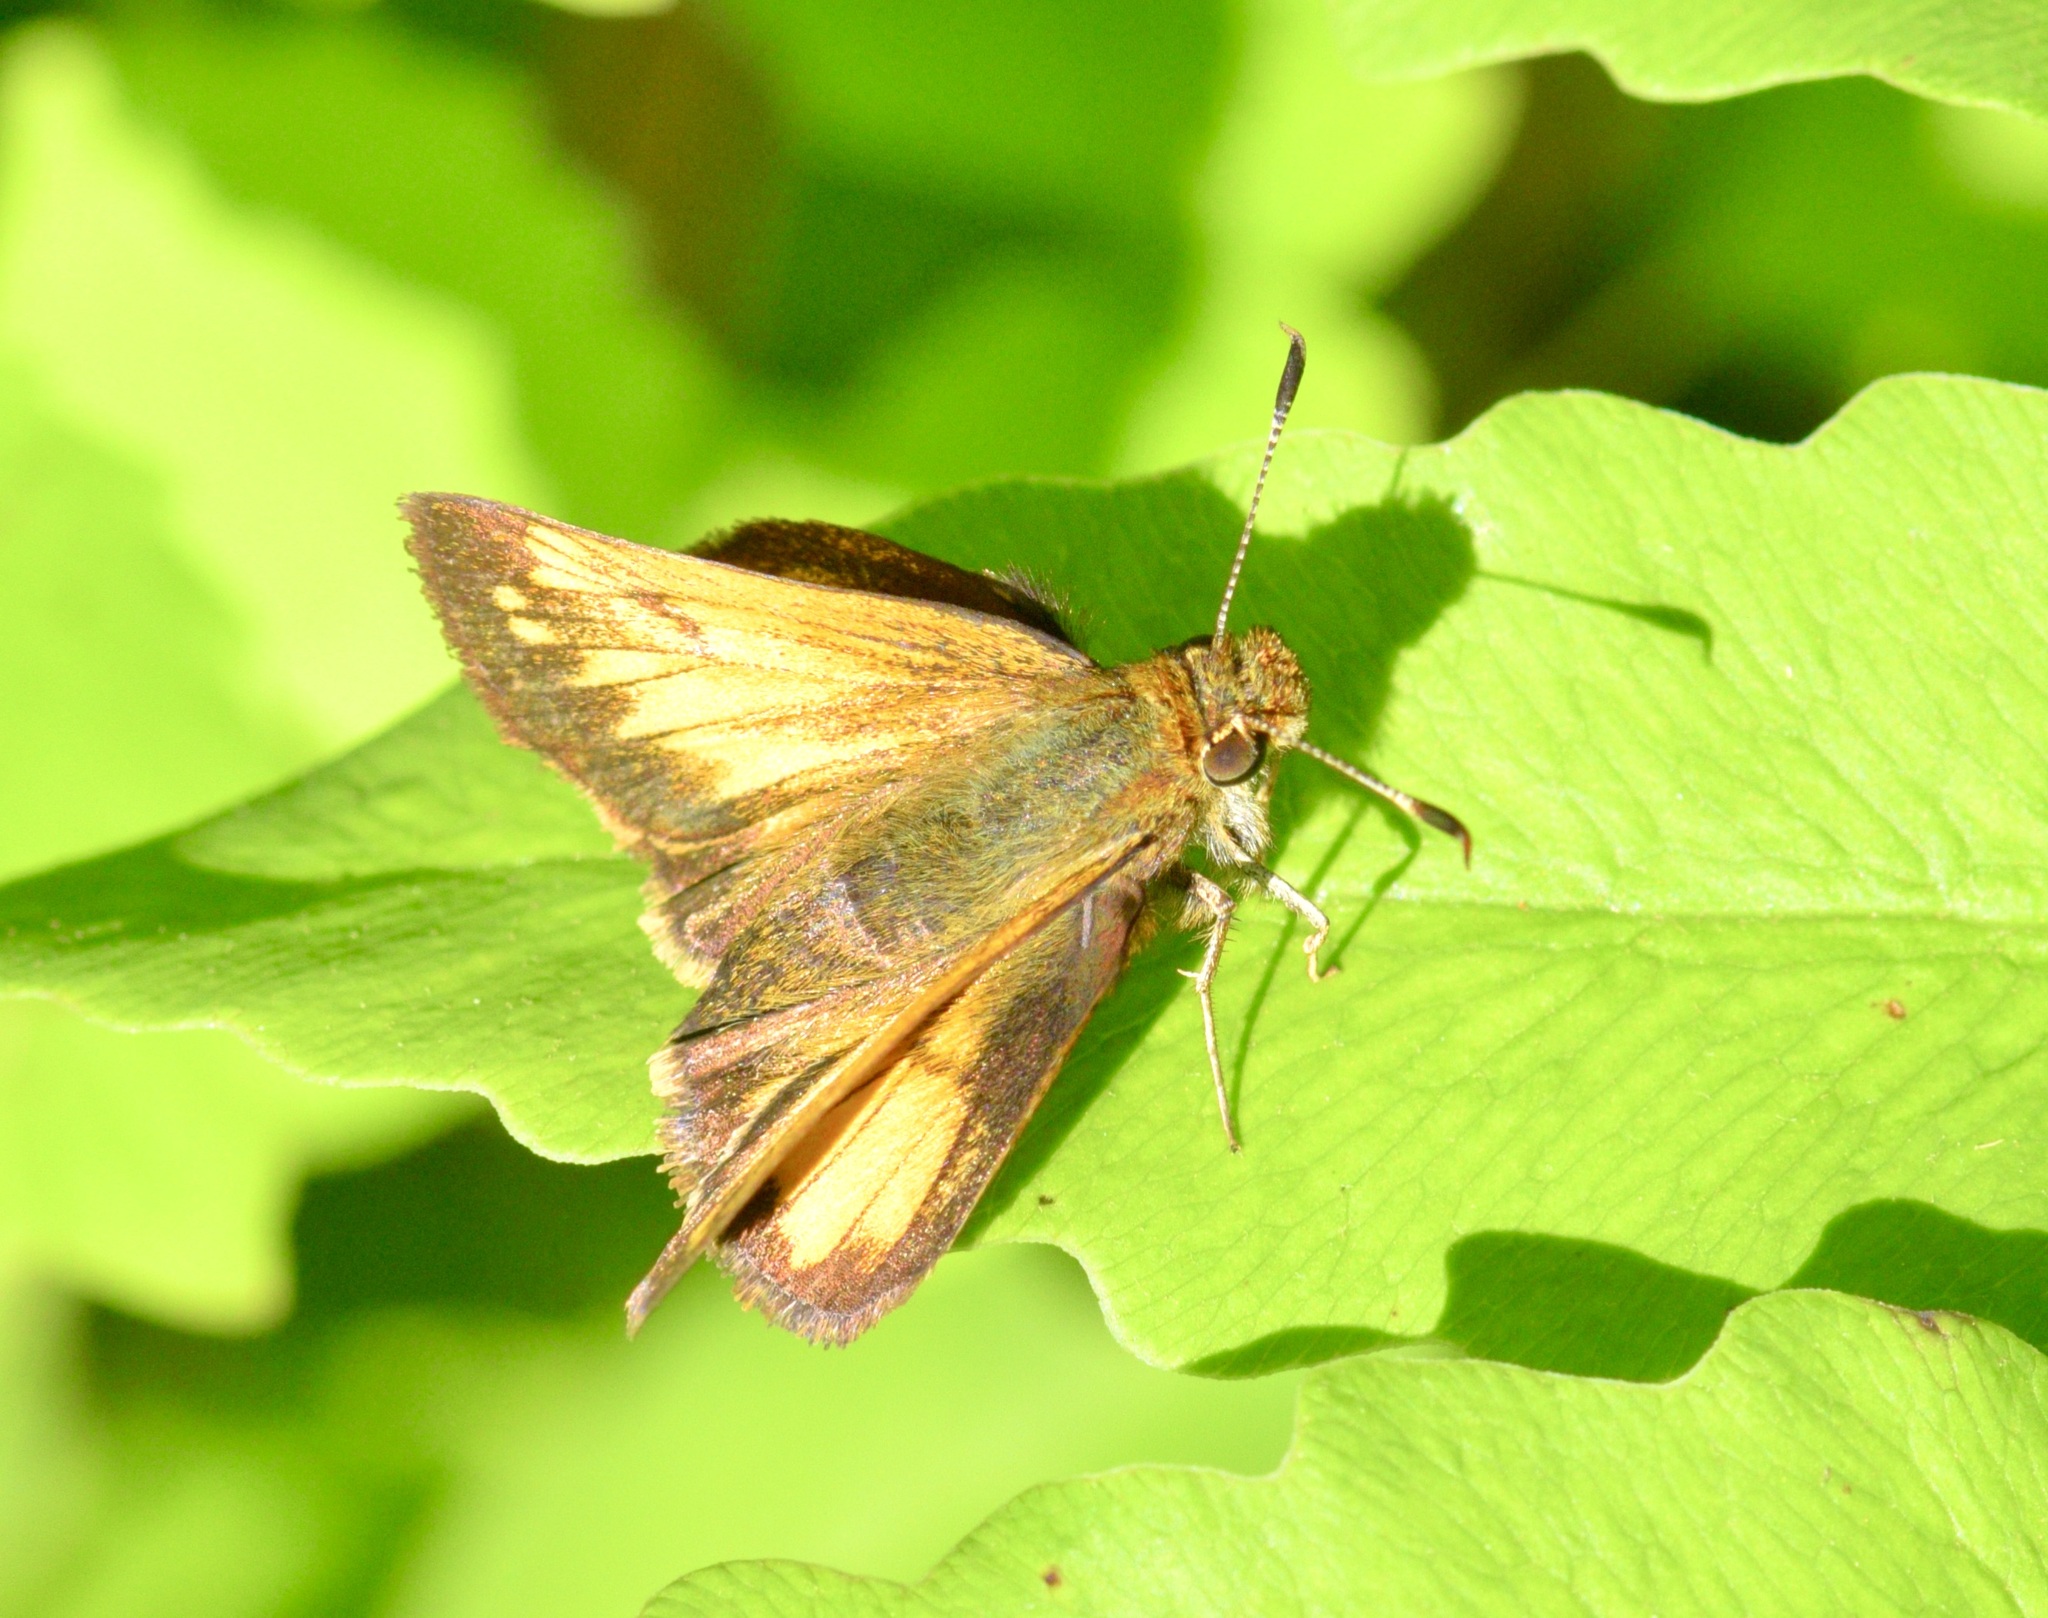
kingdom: Animalia
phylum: Arthropoda
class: Insecta
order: Lepidoptera
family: Hesperiidae
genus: Lon
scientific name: Lon hobomok
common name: Hobomok skipper
